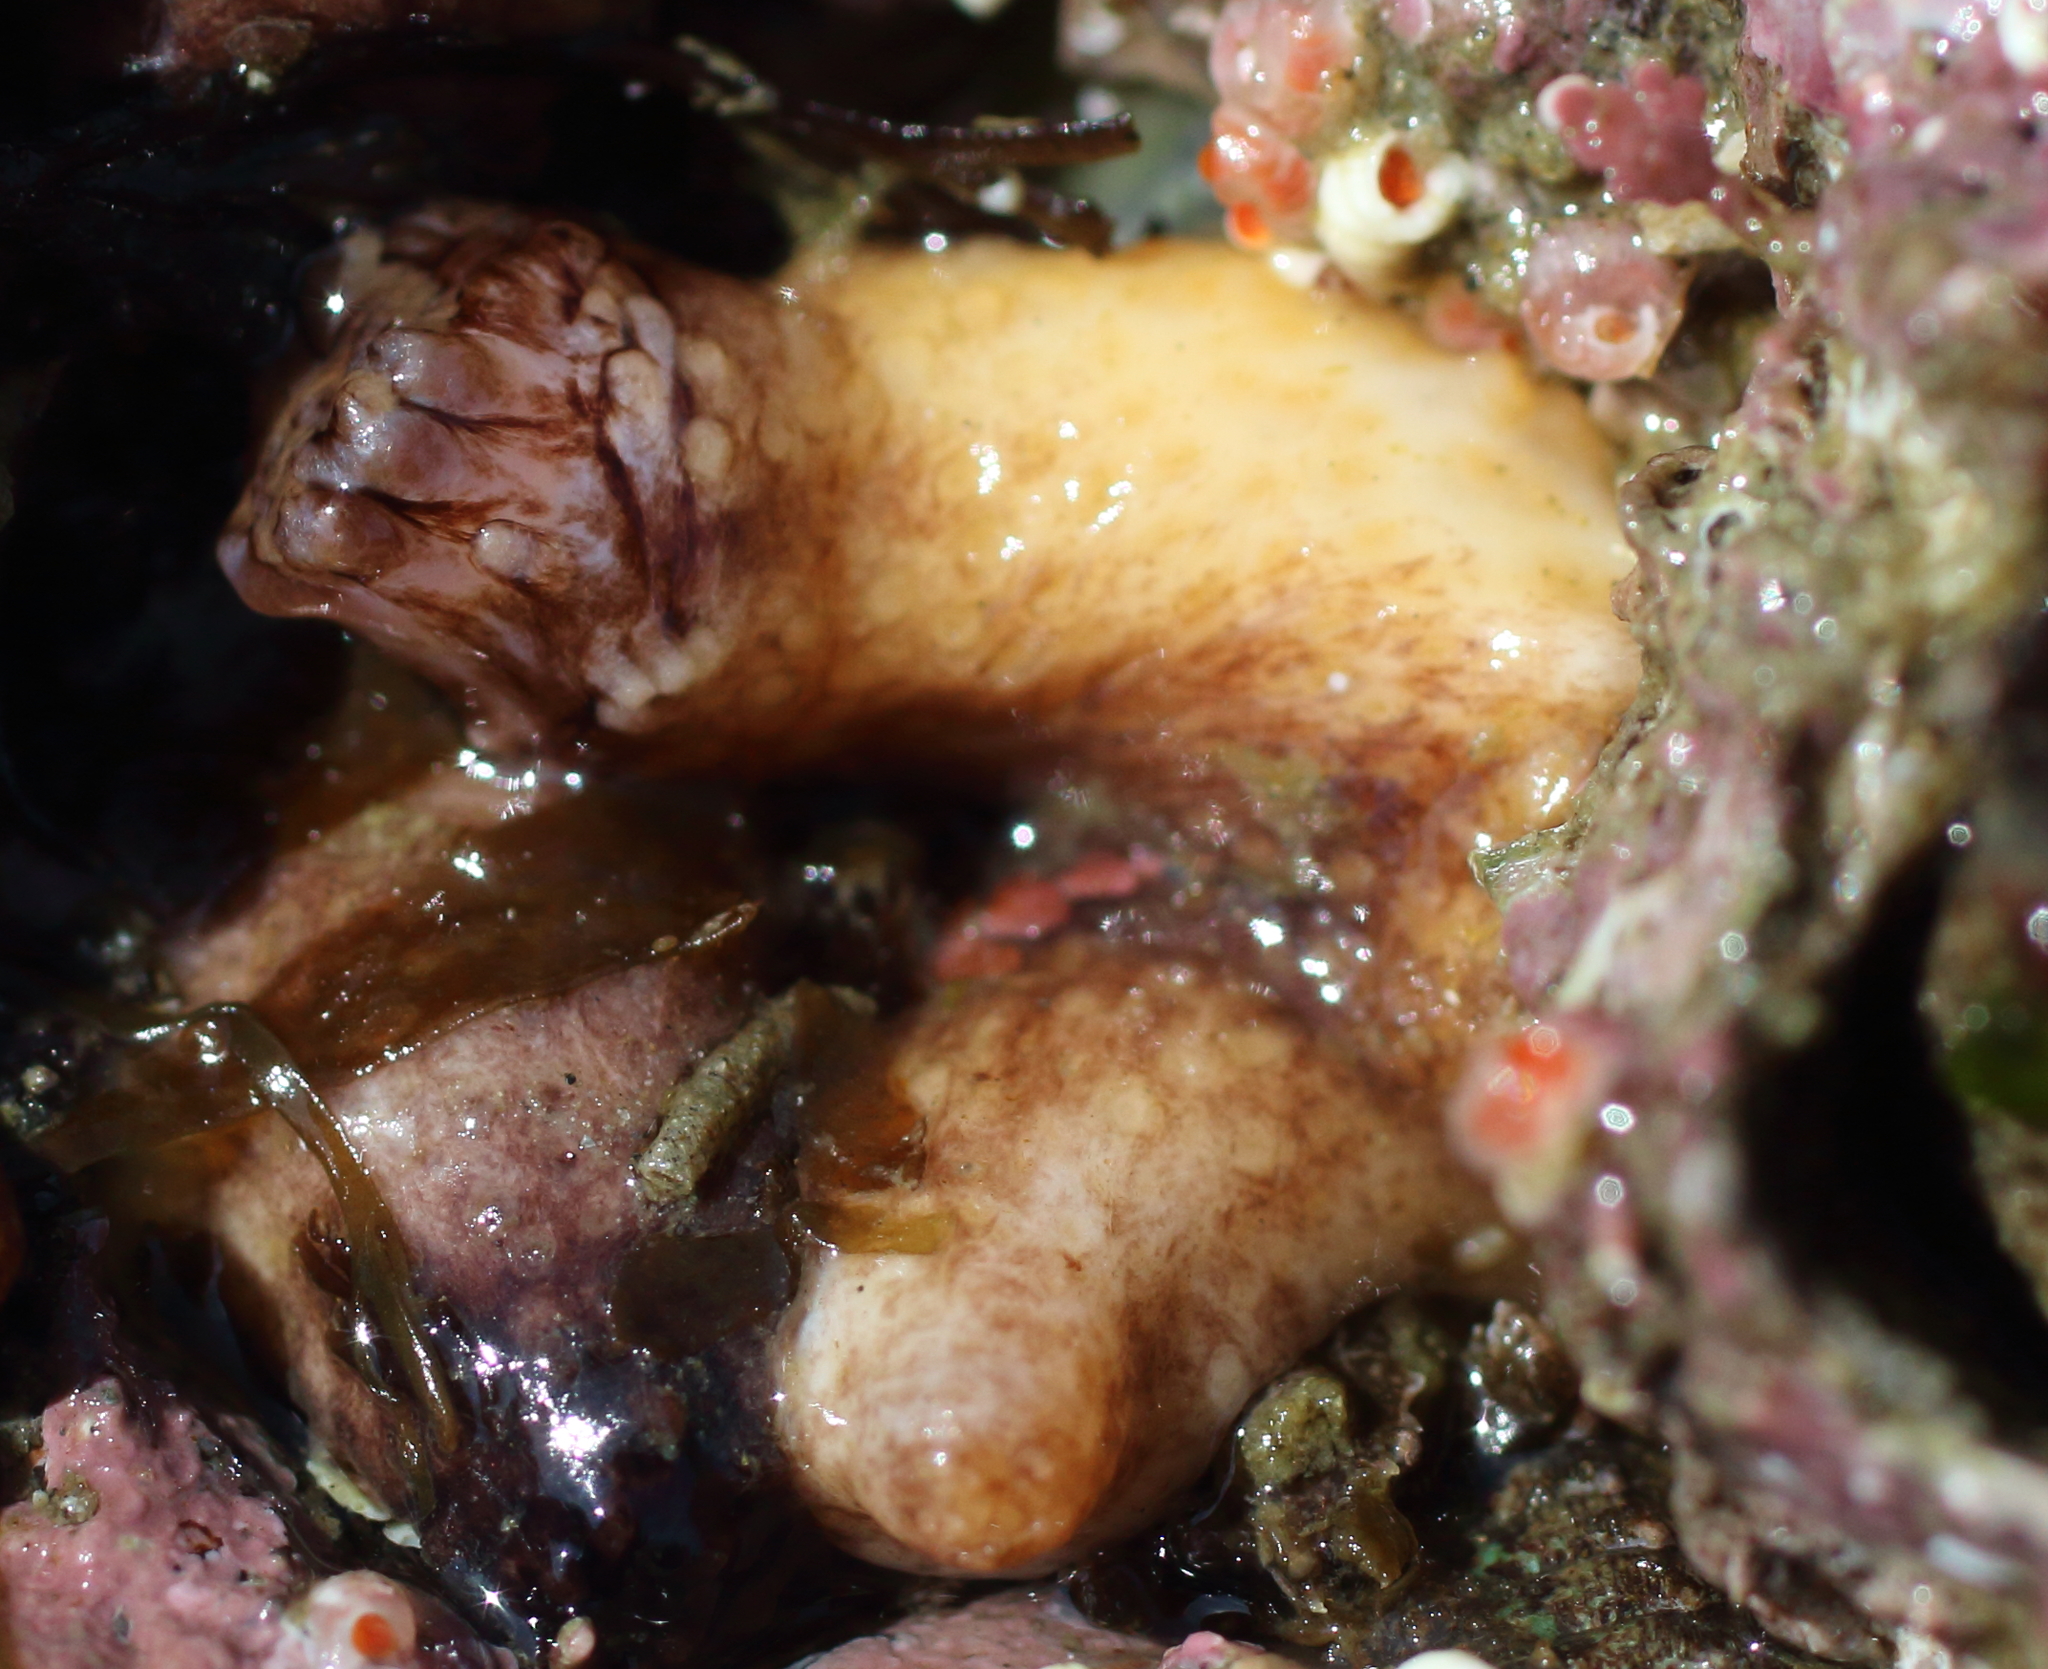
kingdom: Animalia
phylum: Echinodermata
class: Holothuroidea
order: Dendrochirotida
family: Sclerodactylidae
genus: Eupentacta
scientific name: Eupentacta pseudoquinquesemita
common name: Pseudo-white sea cucumber
